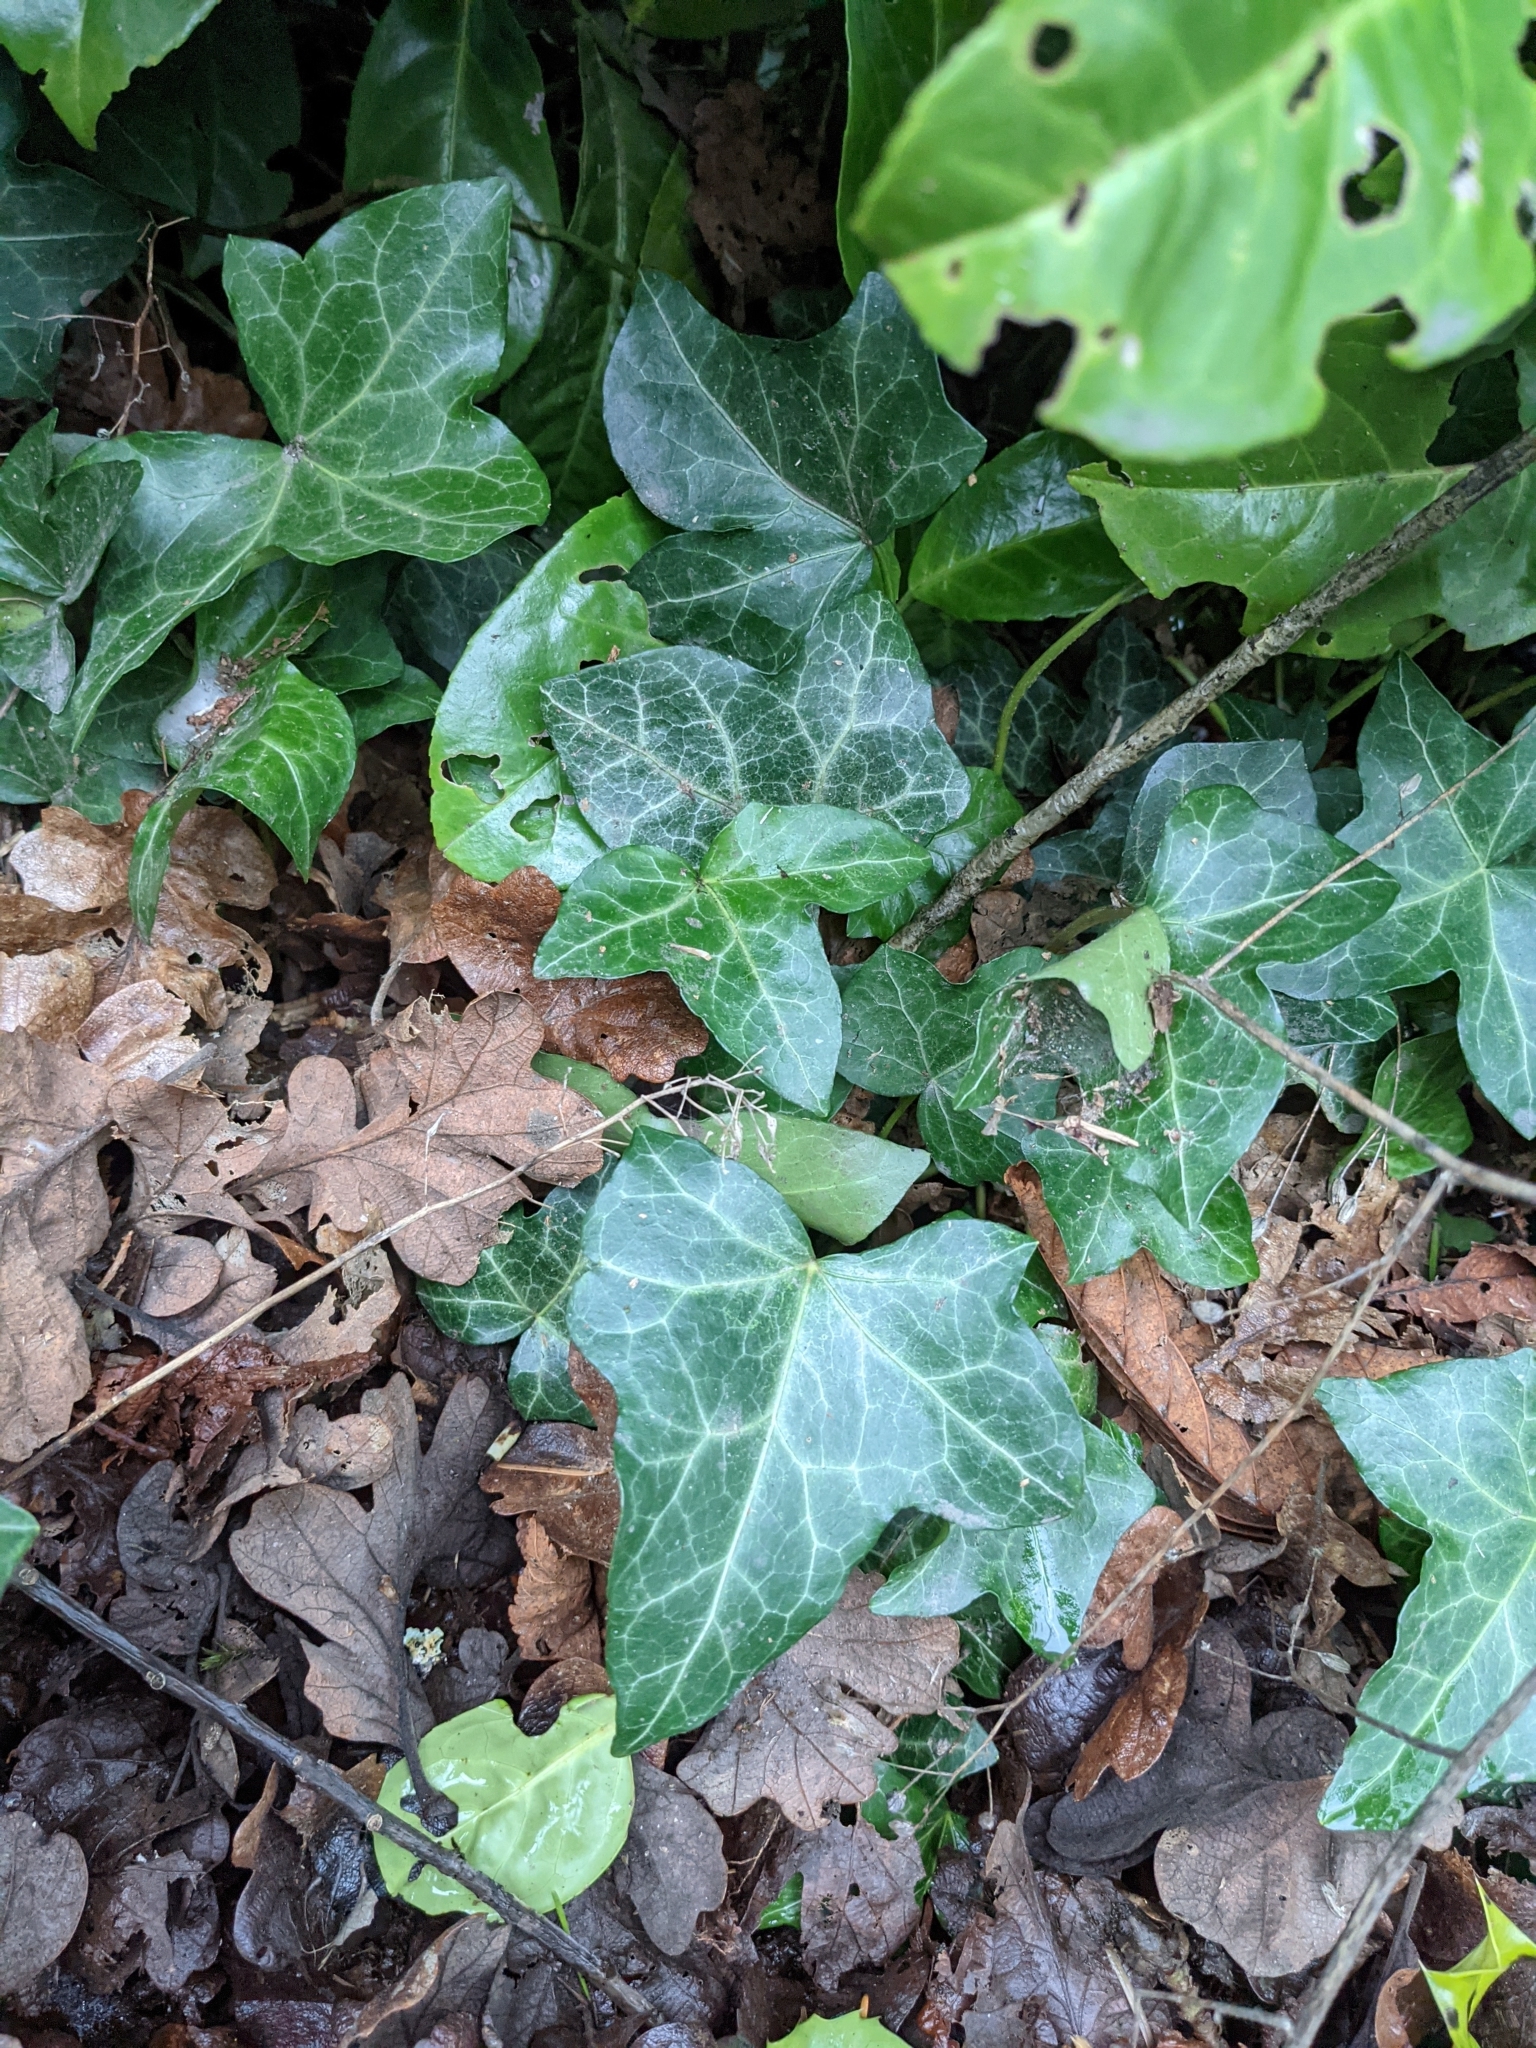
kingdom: Plantae
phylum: Tracheophyta
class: Magnoliopsida
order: Apiales
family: Araliaceae
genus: Hedera
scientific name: Hedera helix
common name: Ivy
